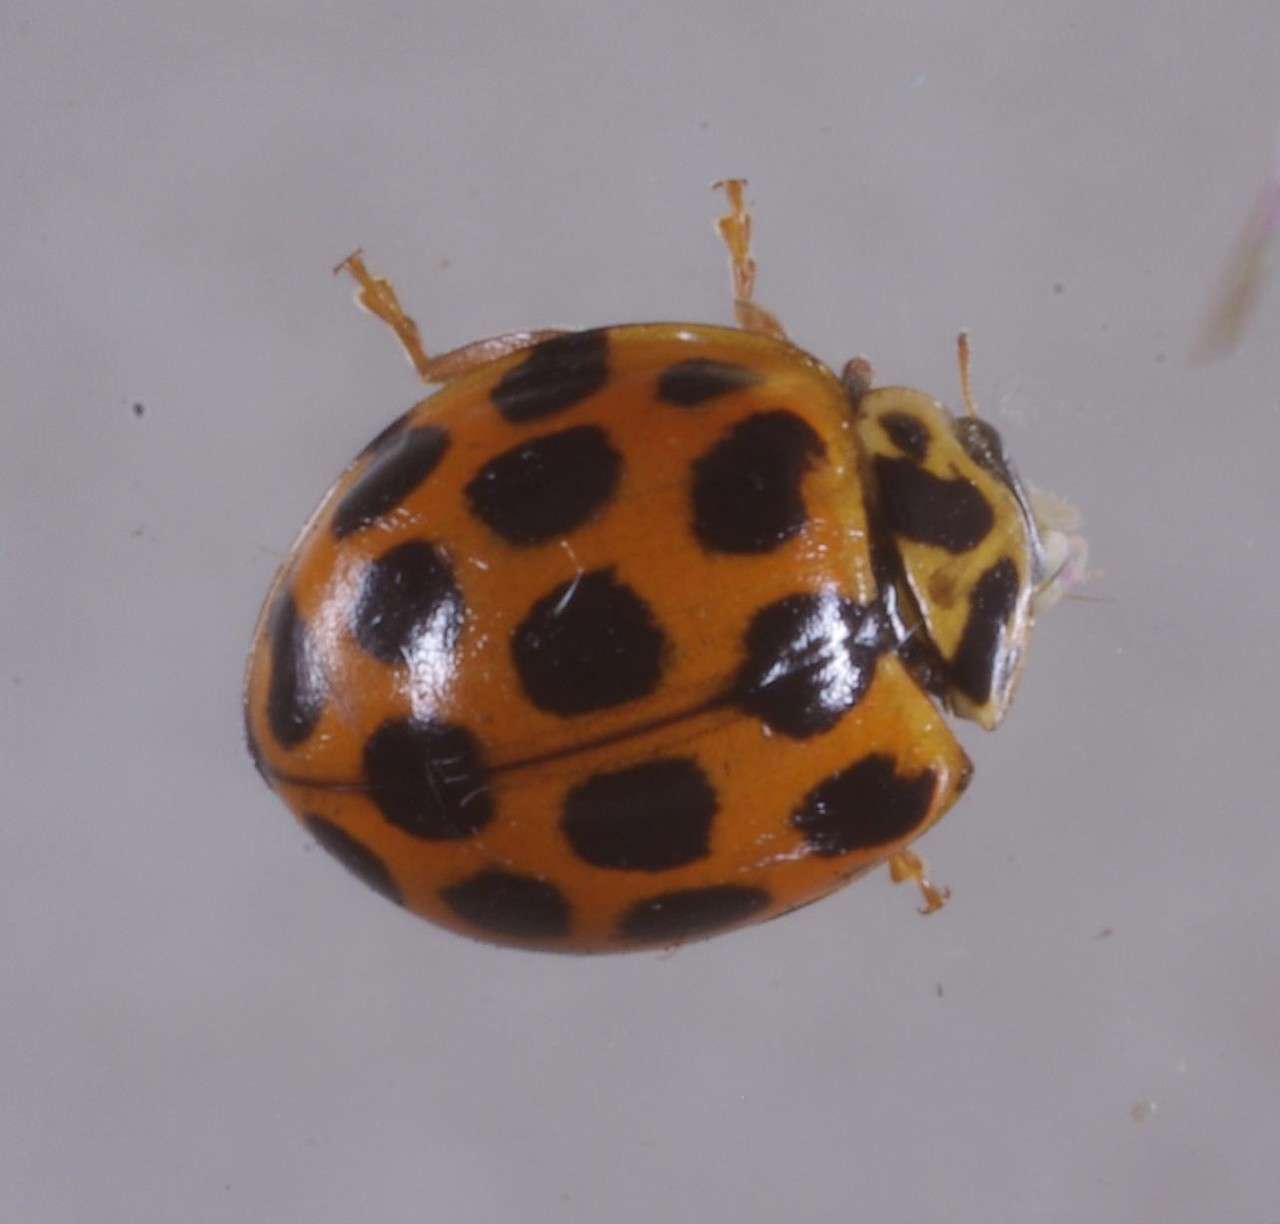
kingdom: Animalia
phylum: Arthropoda
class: Insecta
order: Coleoptera
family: Coccinellidae
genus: Harmonia
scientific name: Harmonia conformis
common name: Common spotted ladybird beetle
